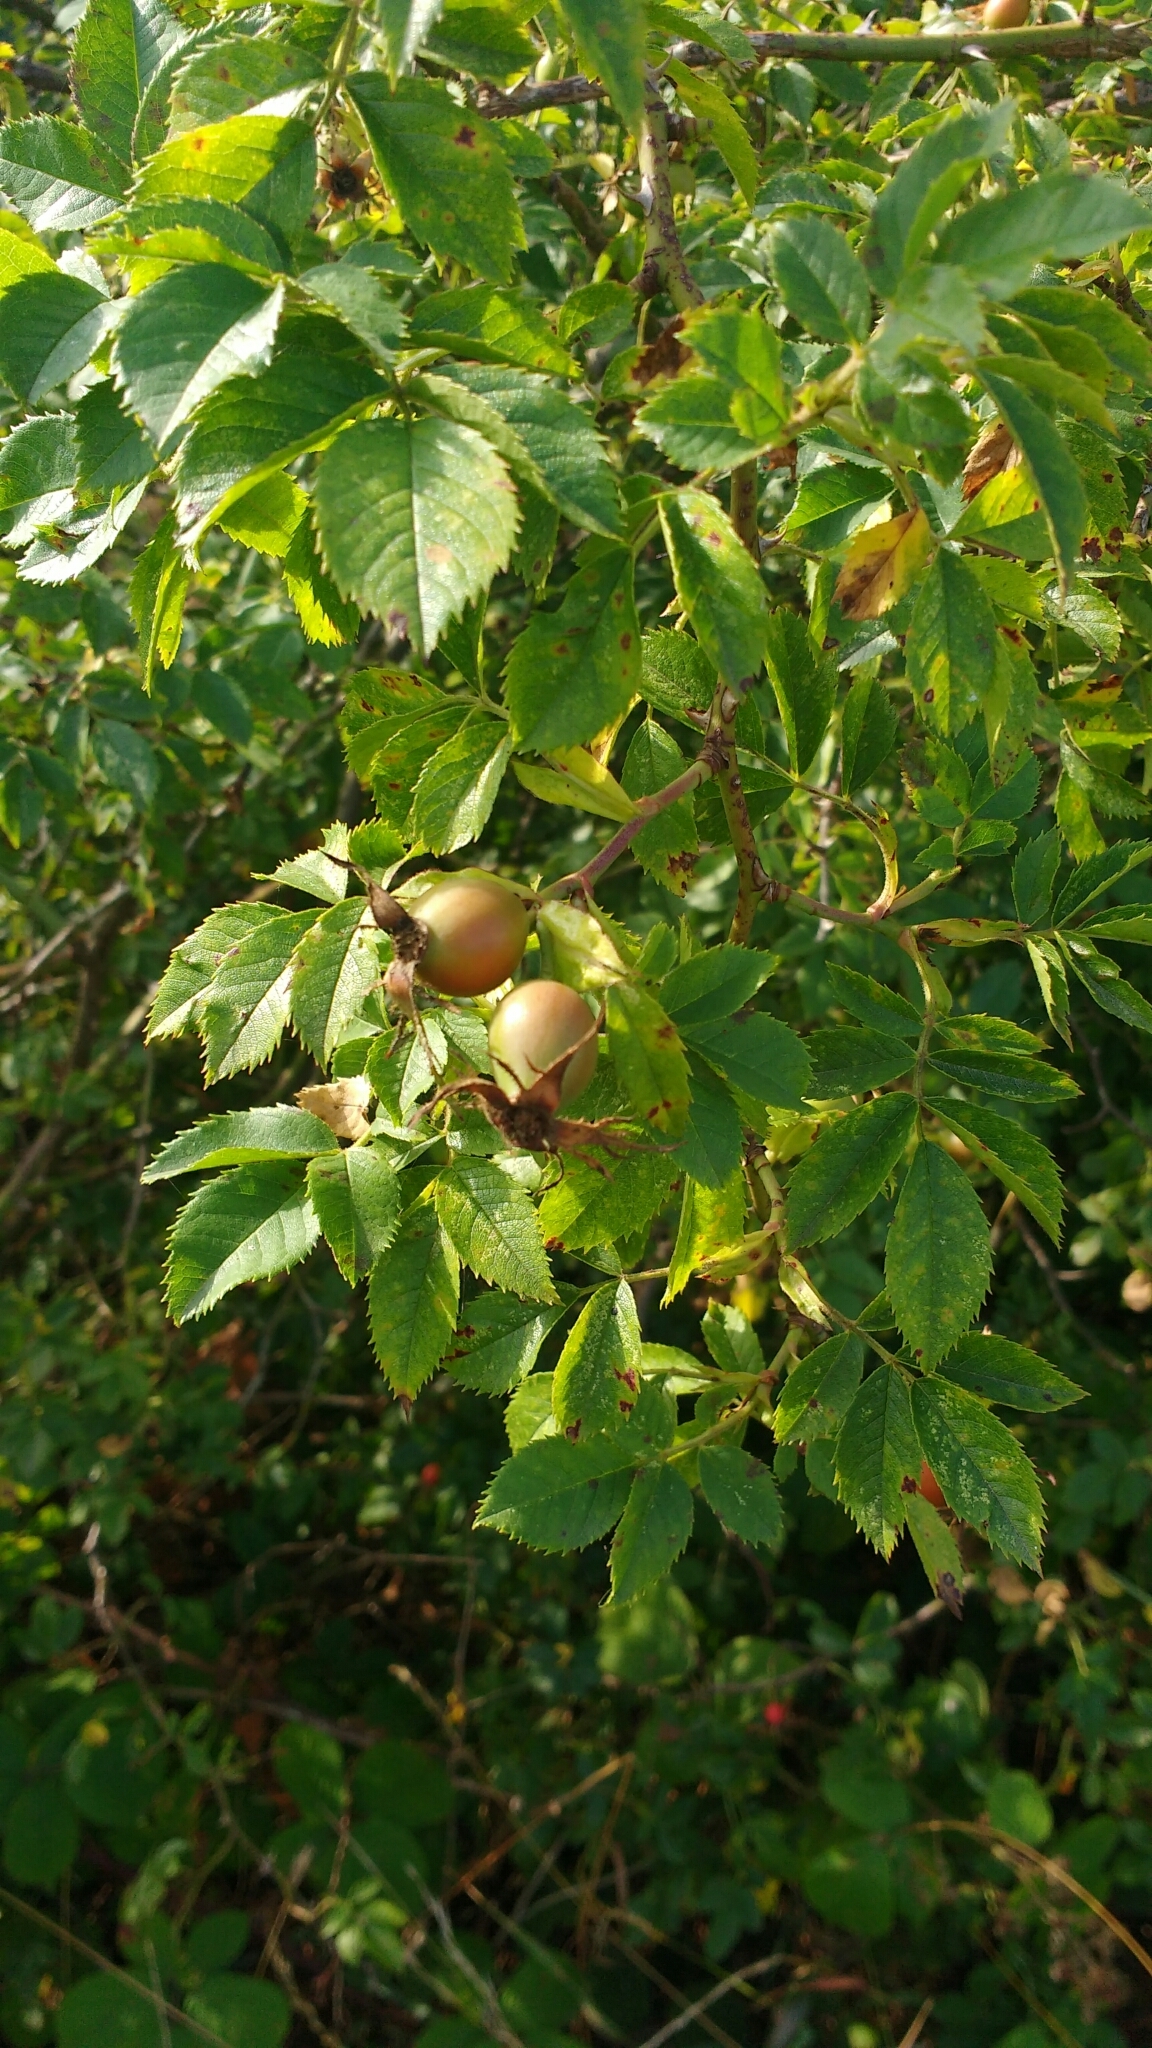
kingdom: Plantae
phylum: Tracheophyta
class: Magnoliopsida
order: Rosales
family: Rosaceae
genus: Rosa
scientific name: Rosa canina
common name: Dog rose
